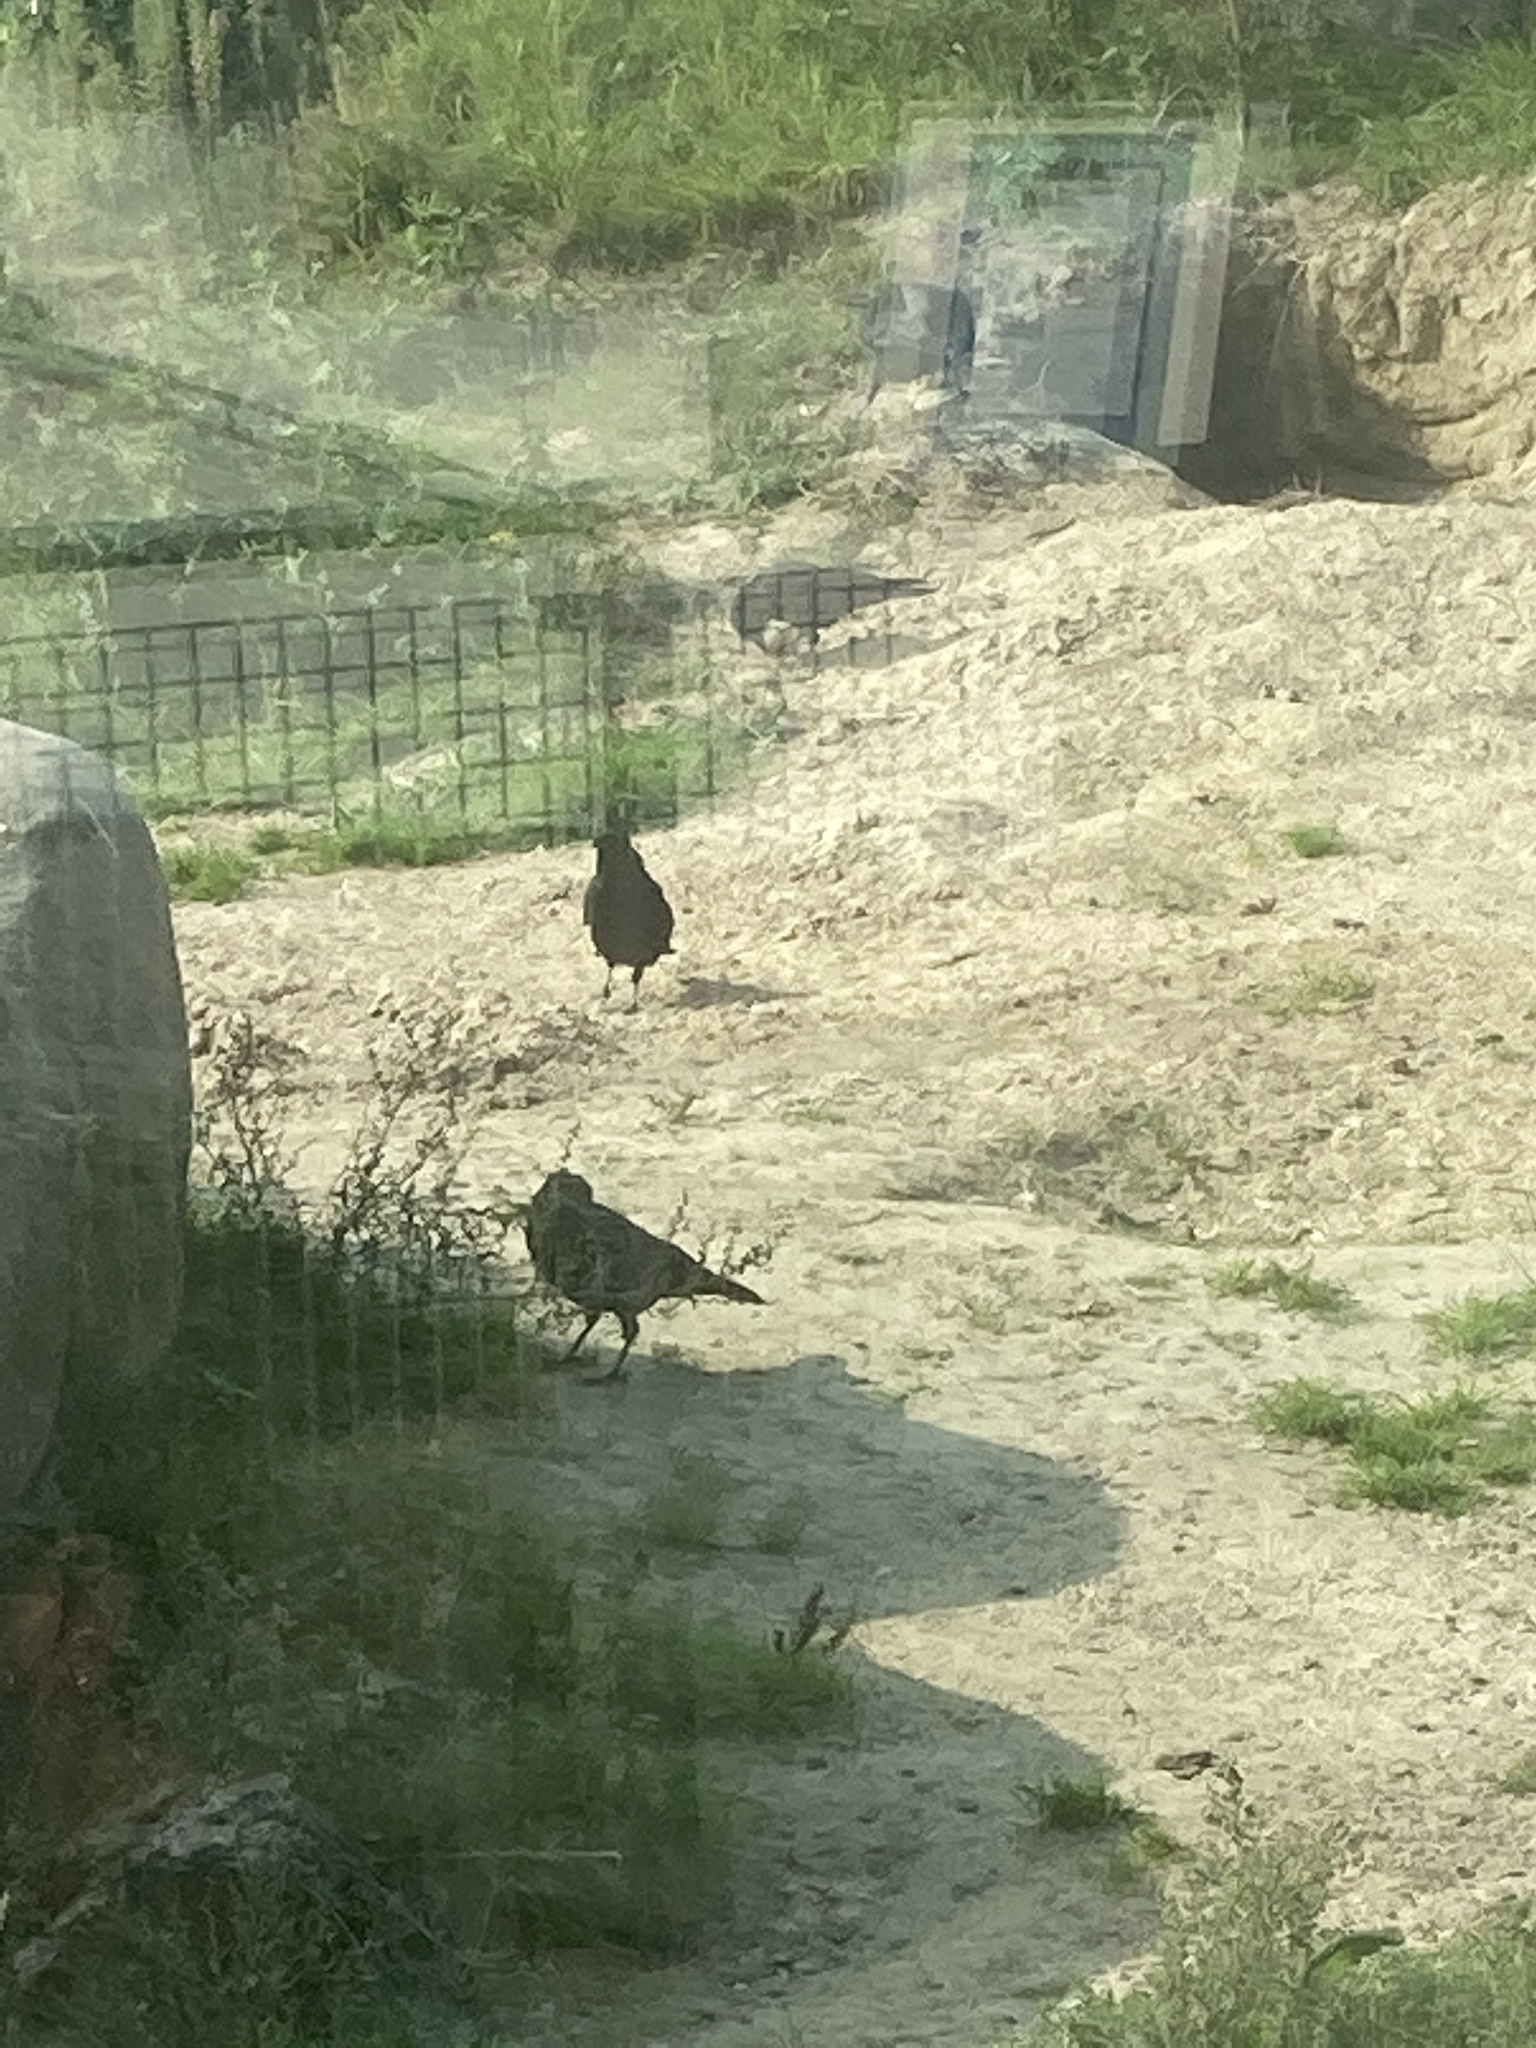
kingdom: Animalia
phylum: Chordata
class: Aves
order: Passeriformes
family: Corvidae
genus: Corvus
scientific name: Corvus frugilegus
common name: Rook
